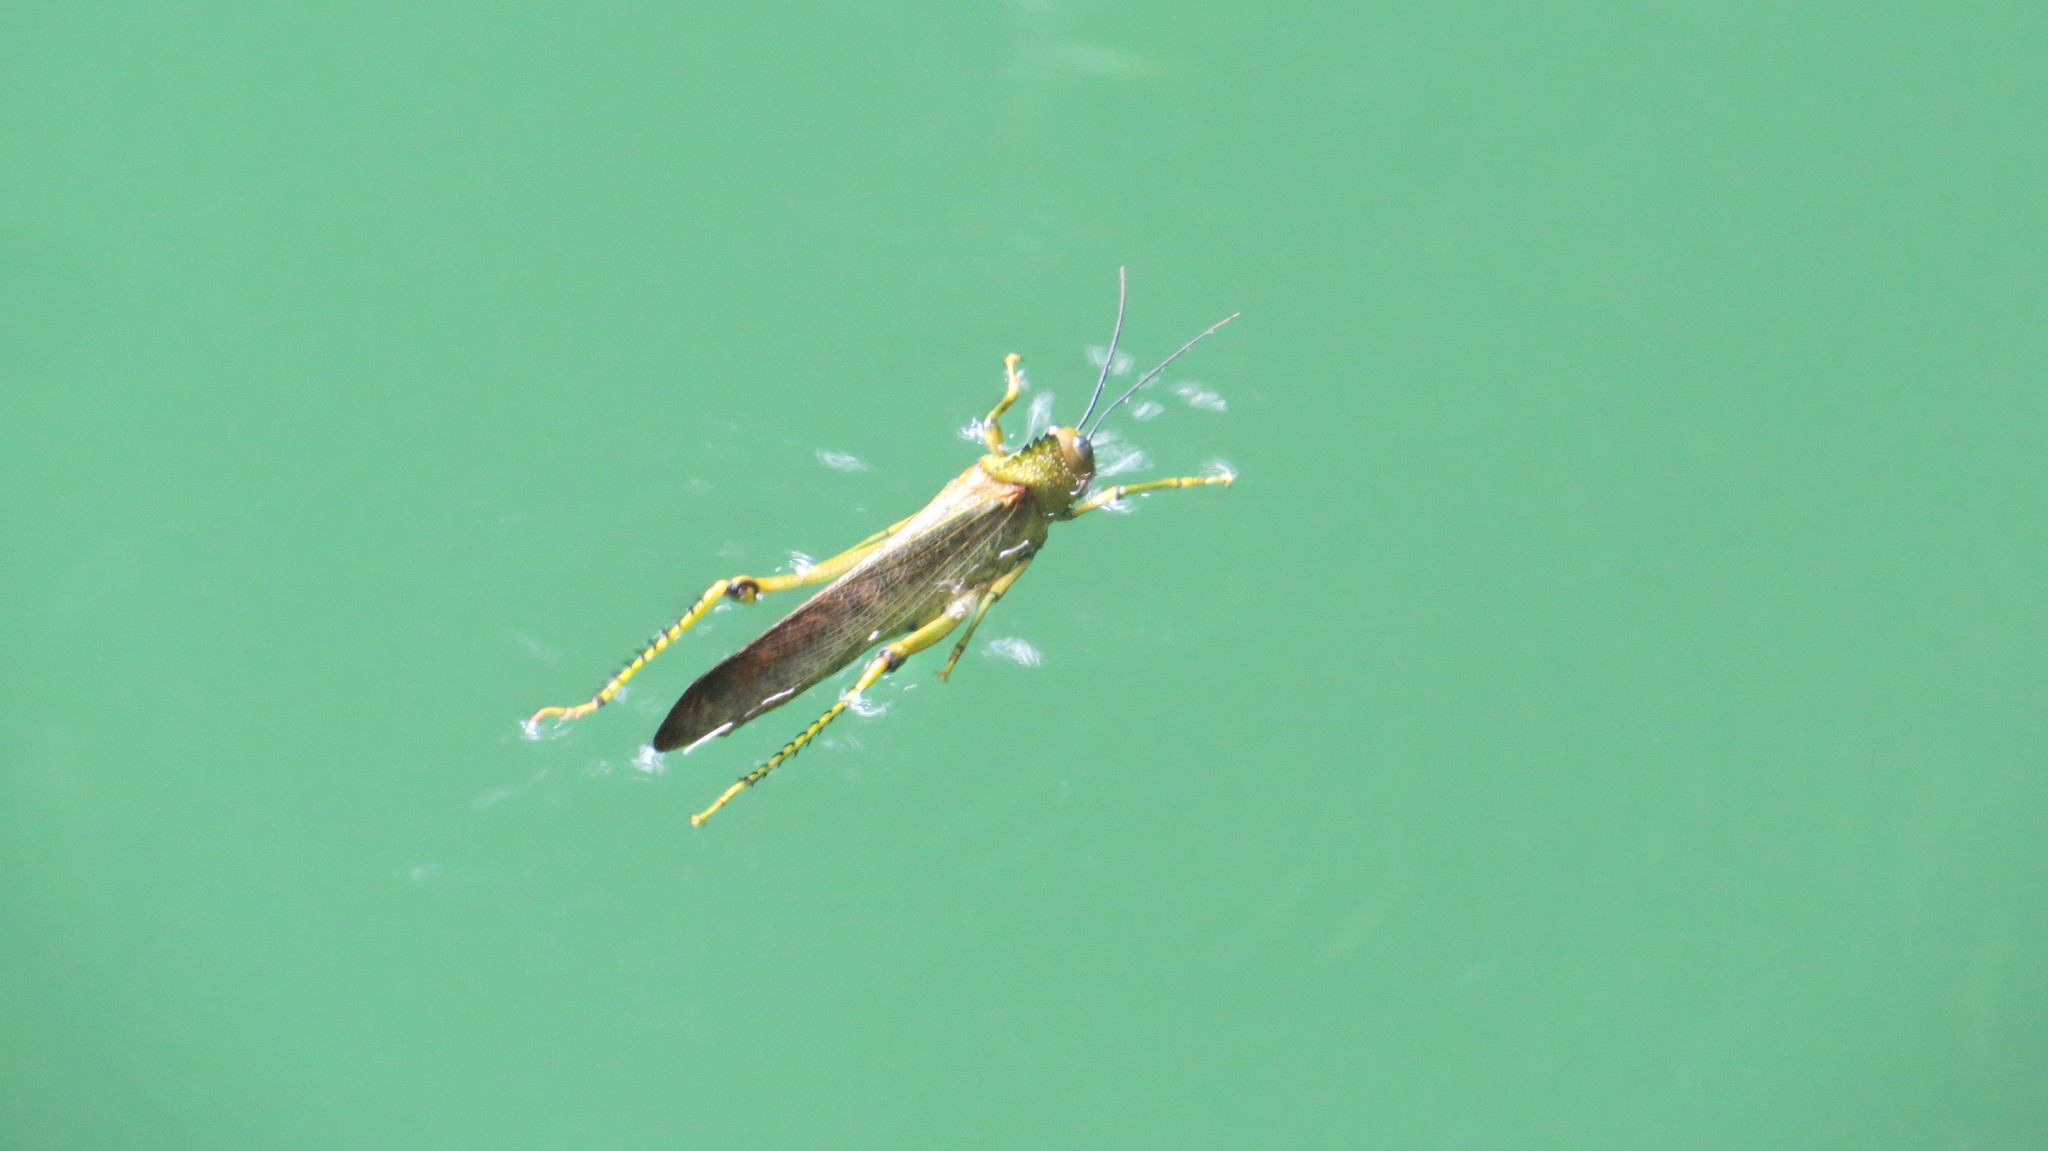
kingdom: Animalia
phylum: Arthropoda
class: Insecta
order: Orthoptera
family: Romaleidae
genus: Tropidacris
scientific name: Tropidacris cristata
